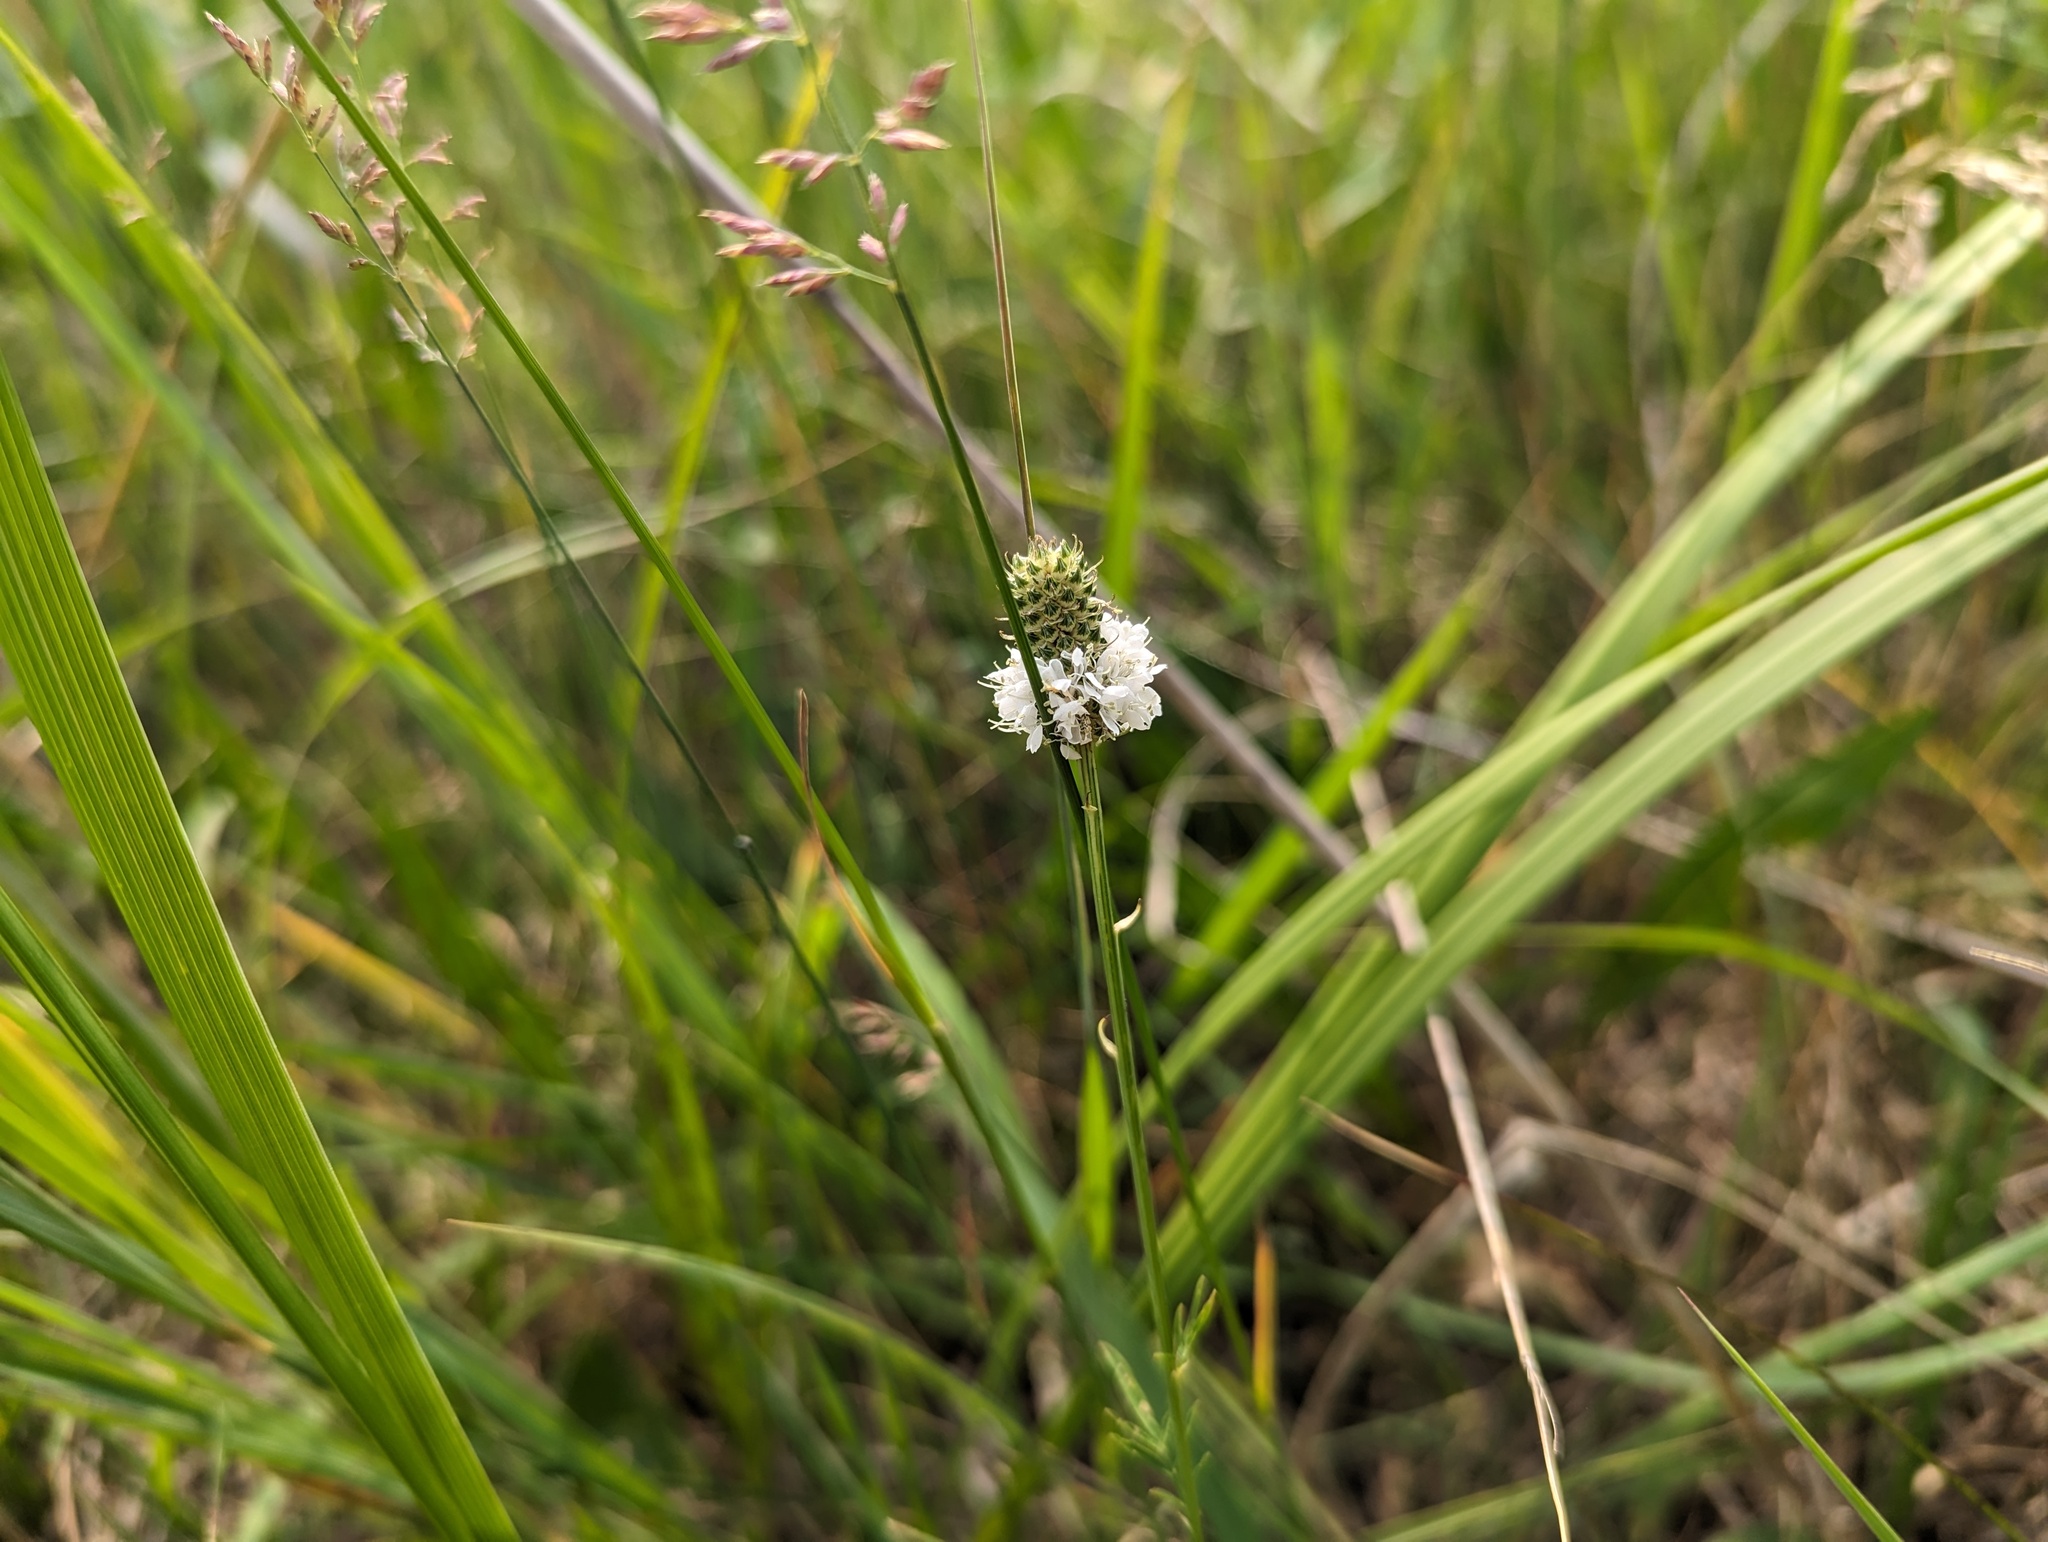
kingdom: Plantae
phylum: Tracheophyta
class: Magnoliopsida
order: Fabales
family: Fabaceae
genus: Dalea
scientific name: Dalea candida
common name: White prairie-clover
